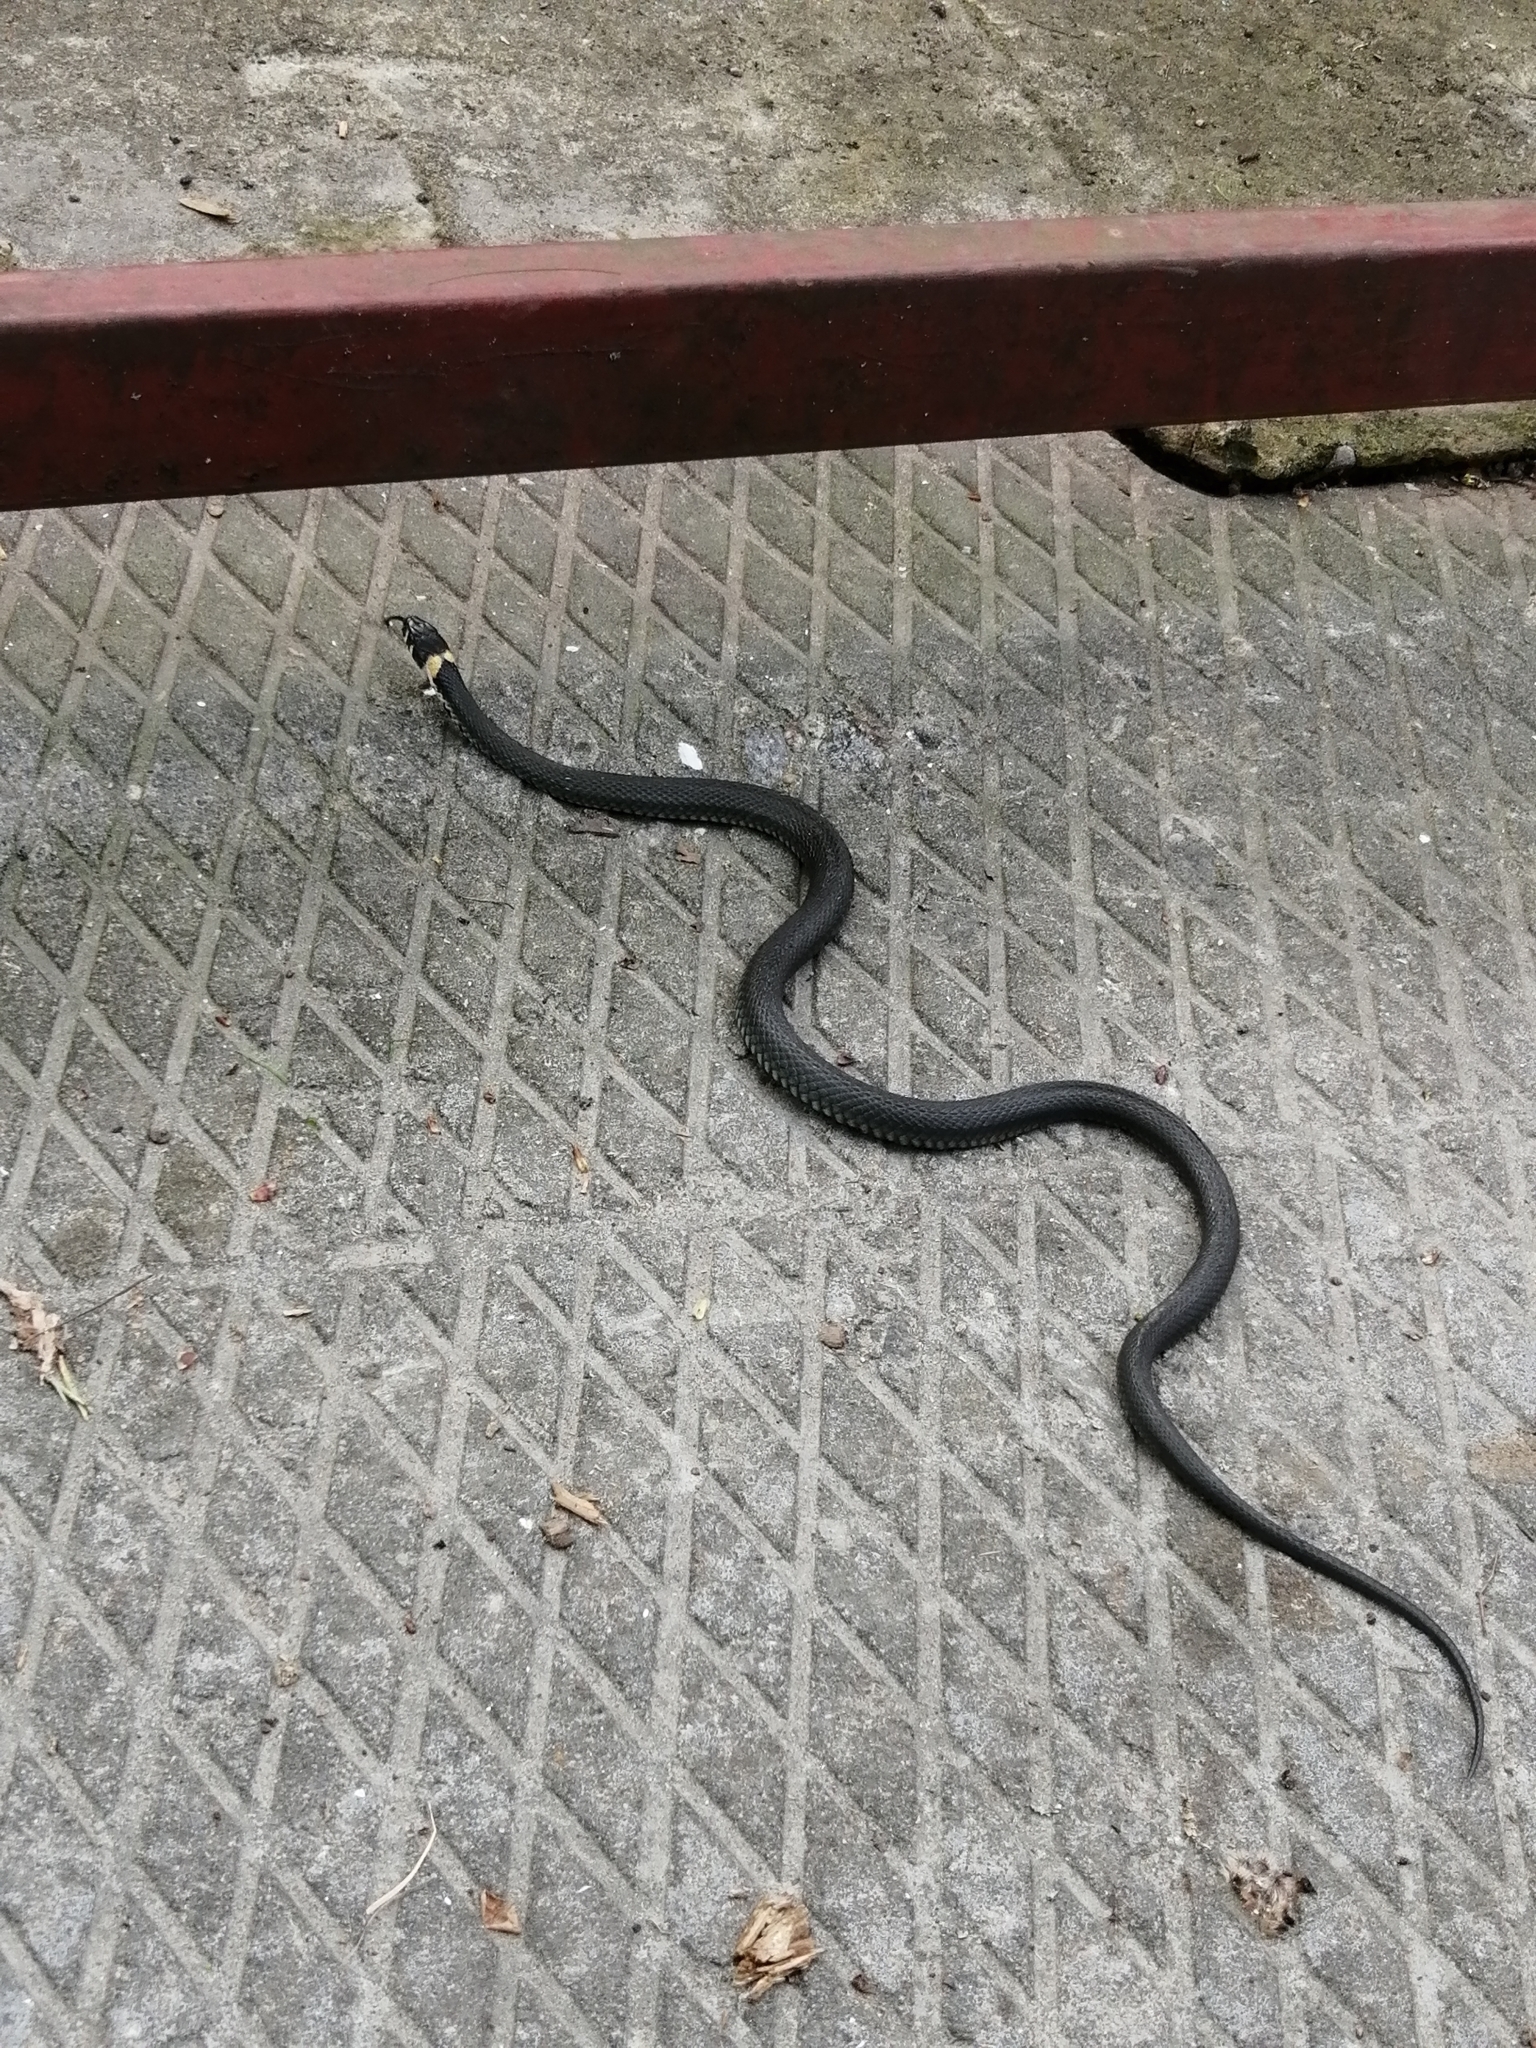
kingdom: Animalia
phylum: Chordata
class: Squamata
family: Colubridae
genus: Natrix
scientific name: Natrix natrix
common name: Grass snake
